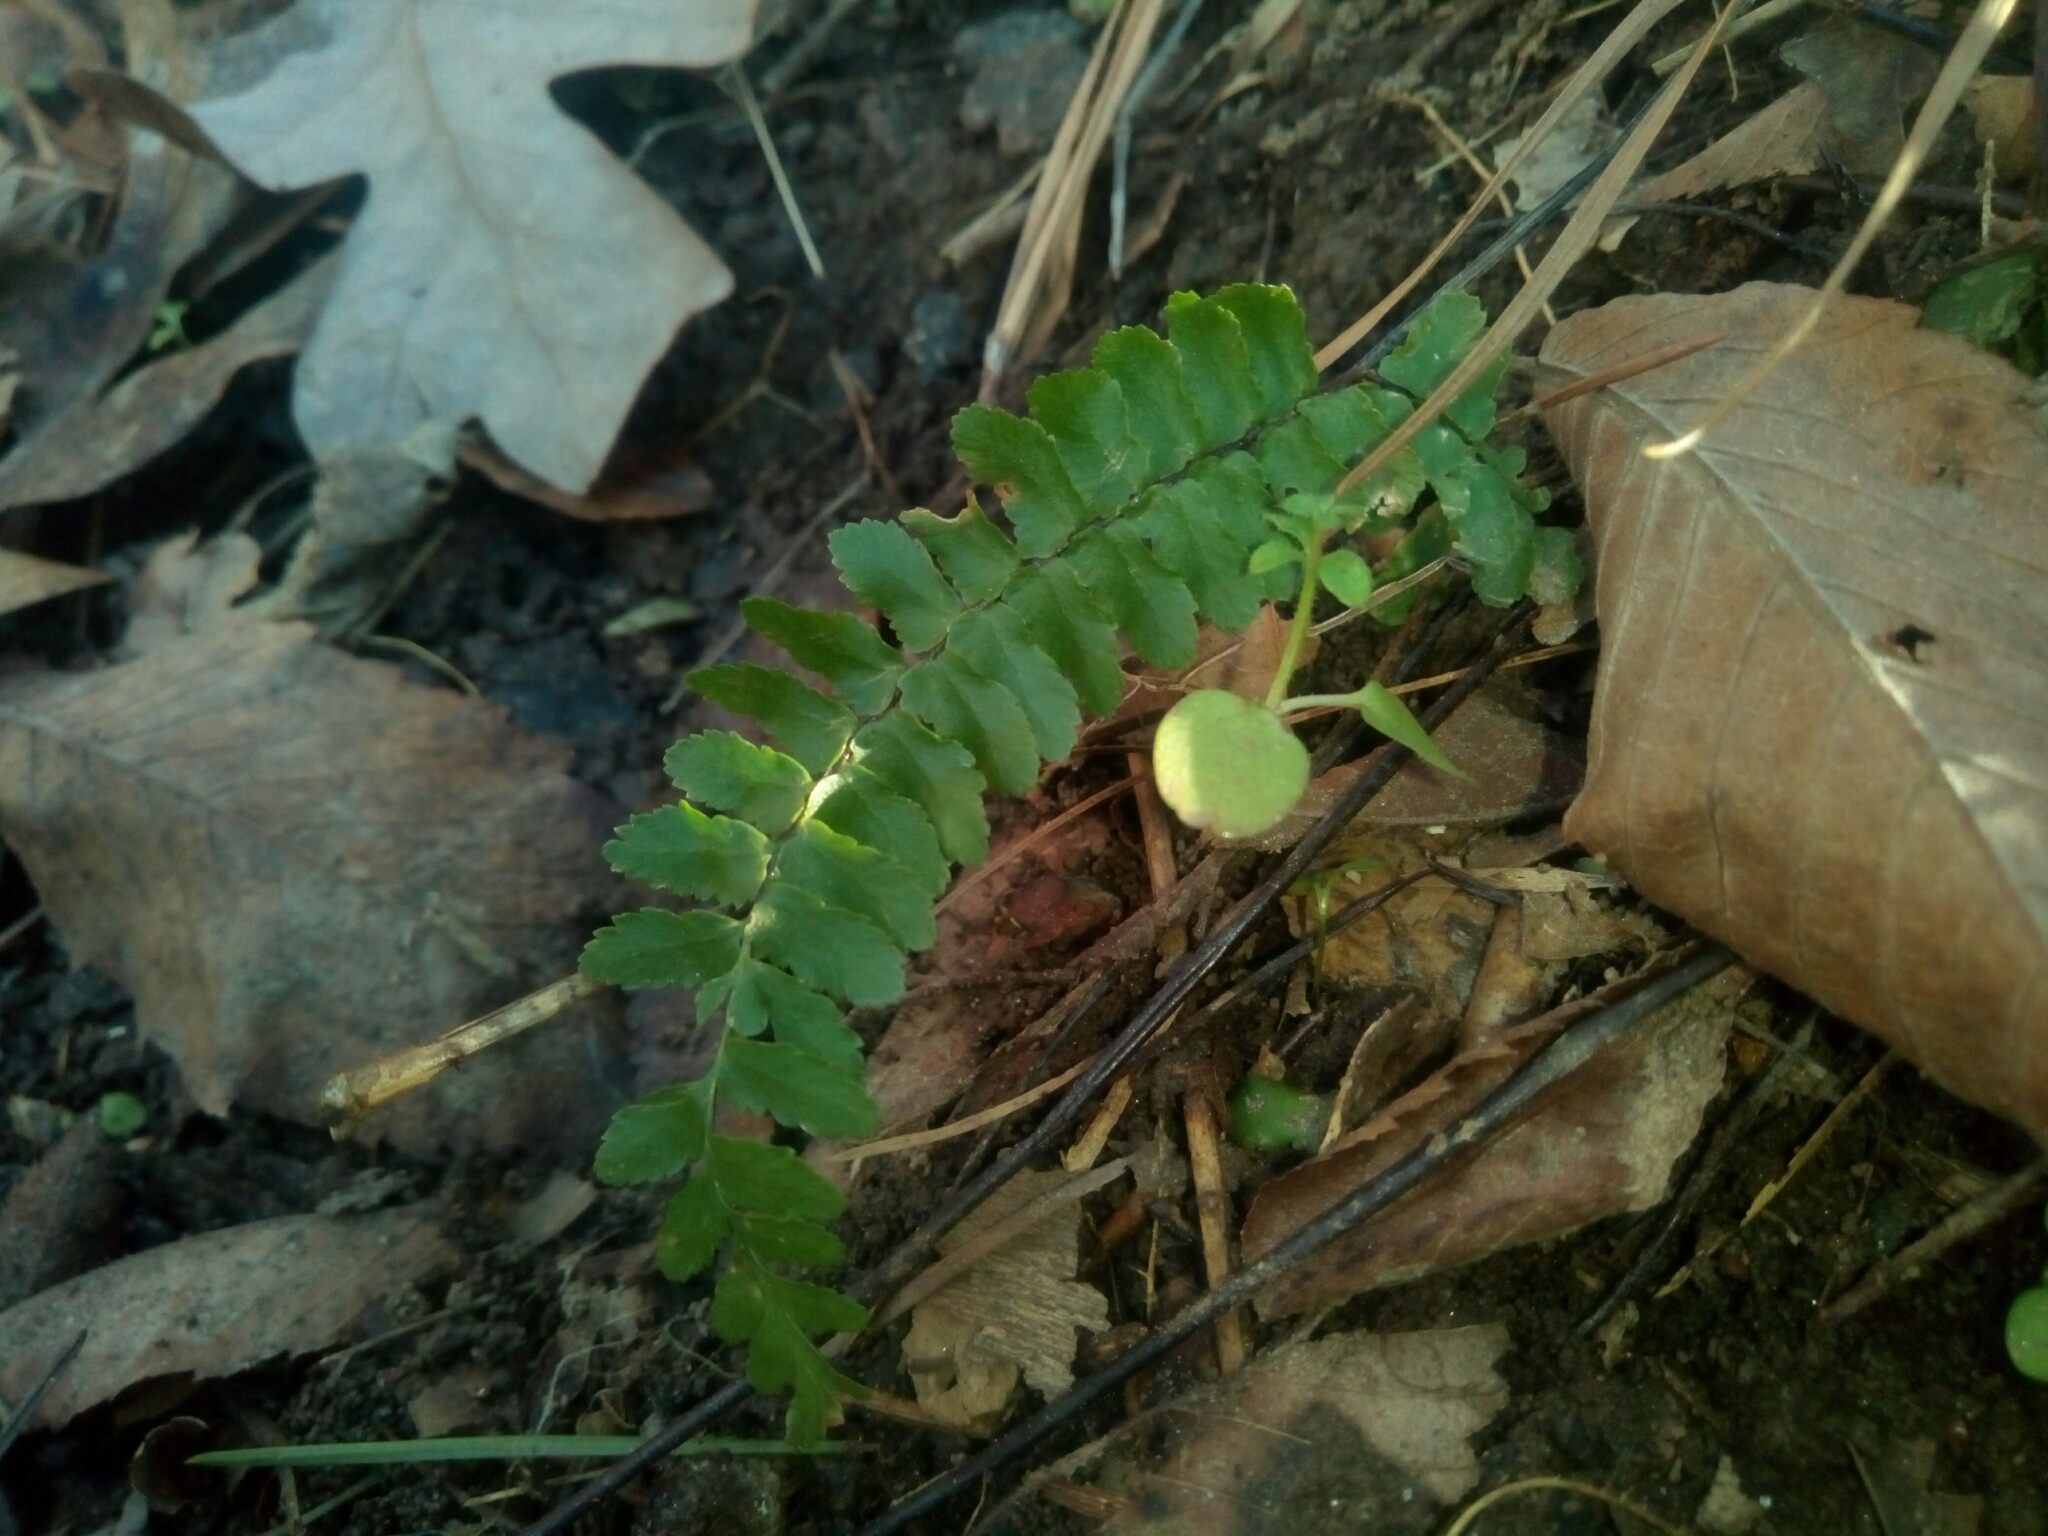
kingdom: Plantae
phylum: Tracheophyta
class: Polypodiopsida
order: Polypodiales
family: Aspleniaceae
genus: Asplenium
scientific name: Asplenium platyneuron
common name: Ebony spleenwort
